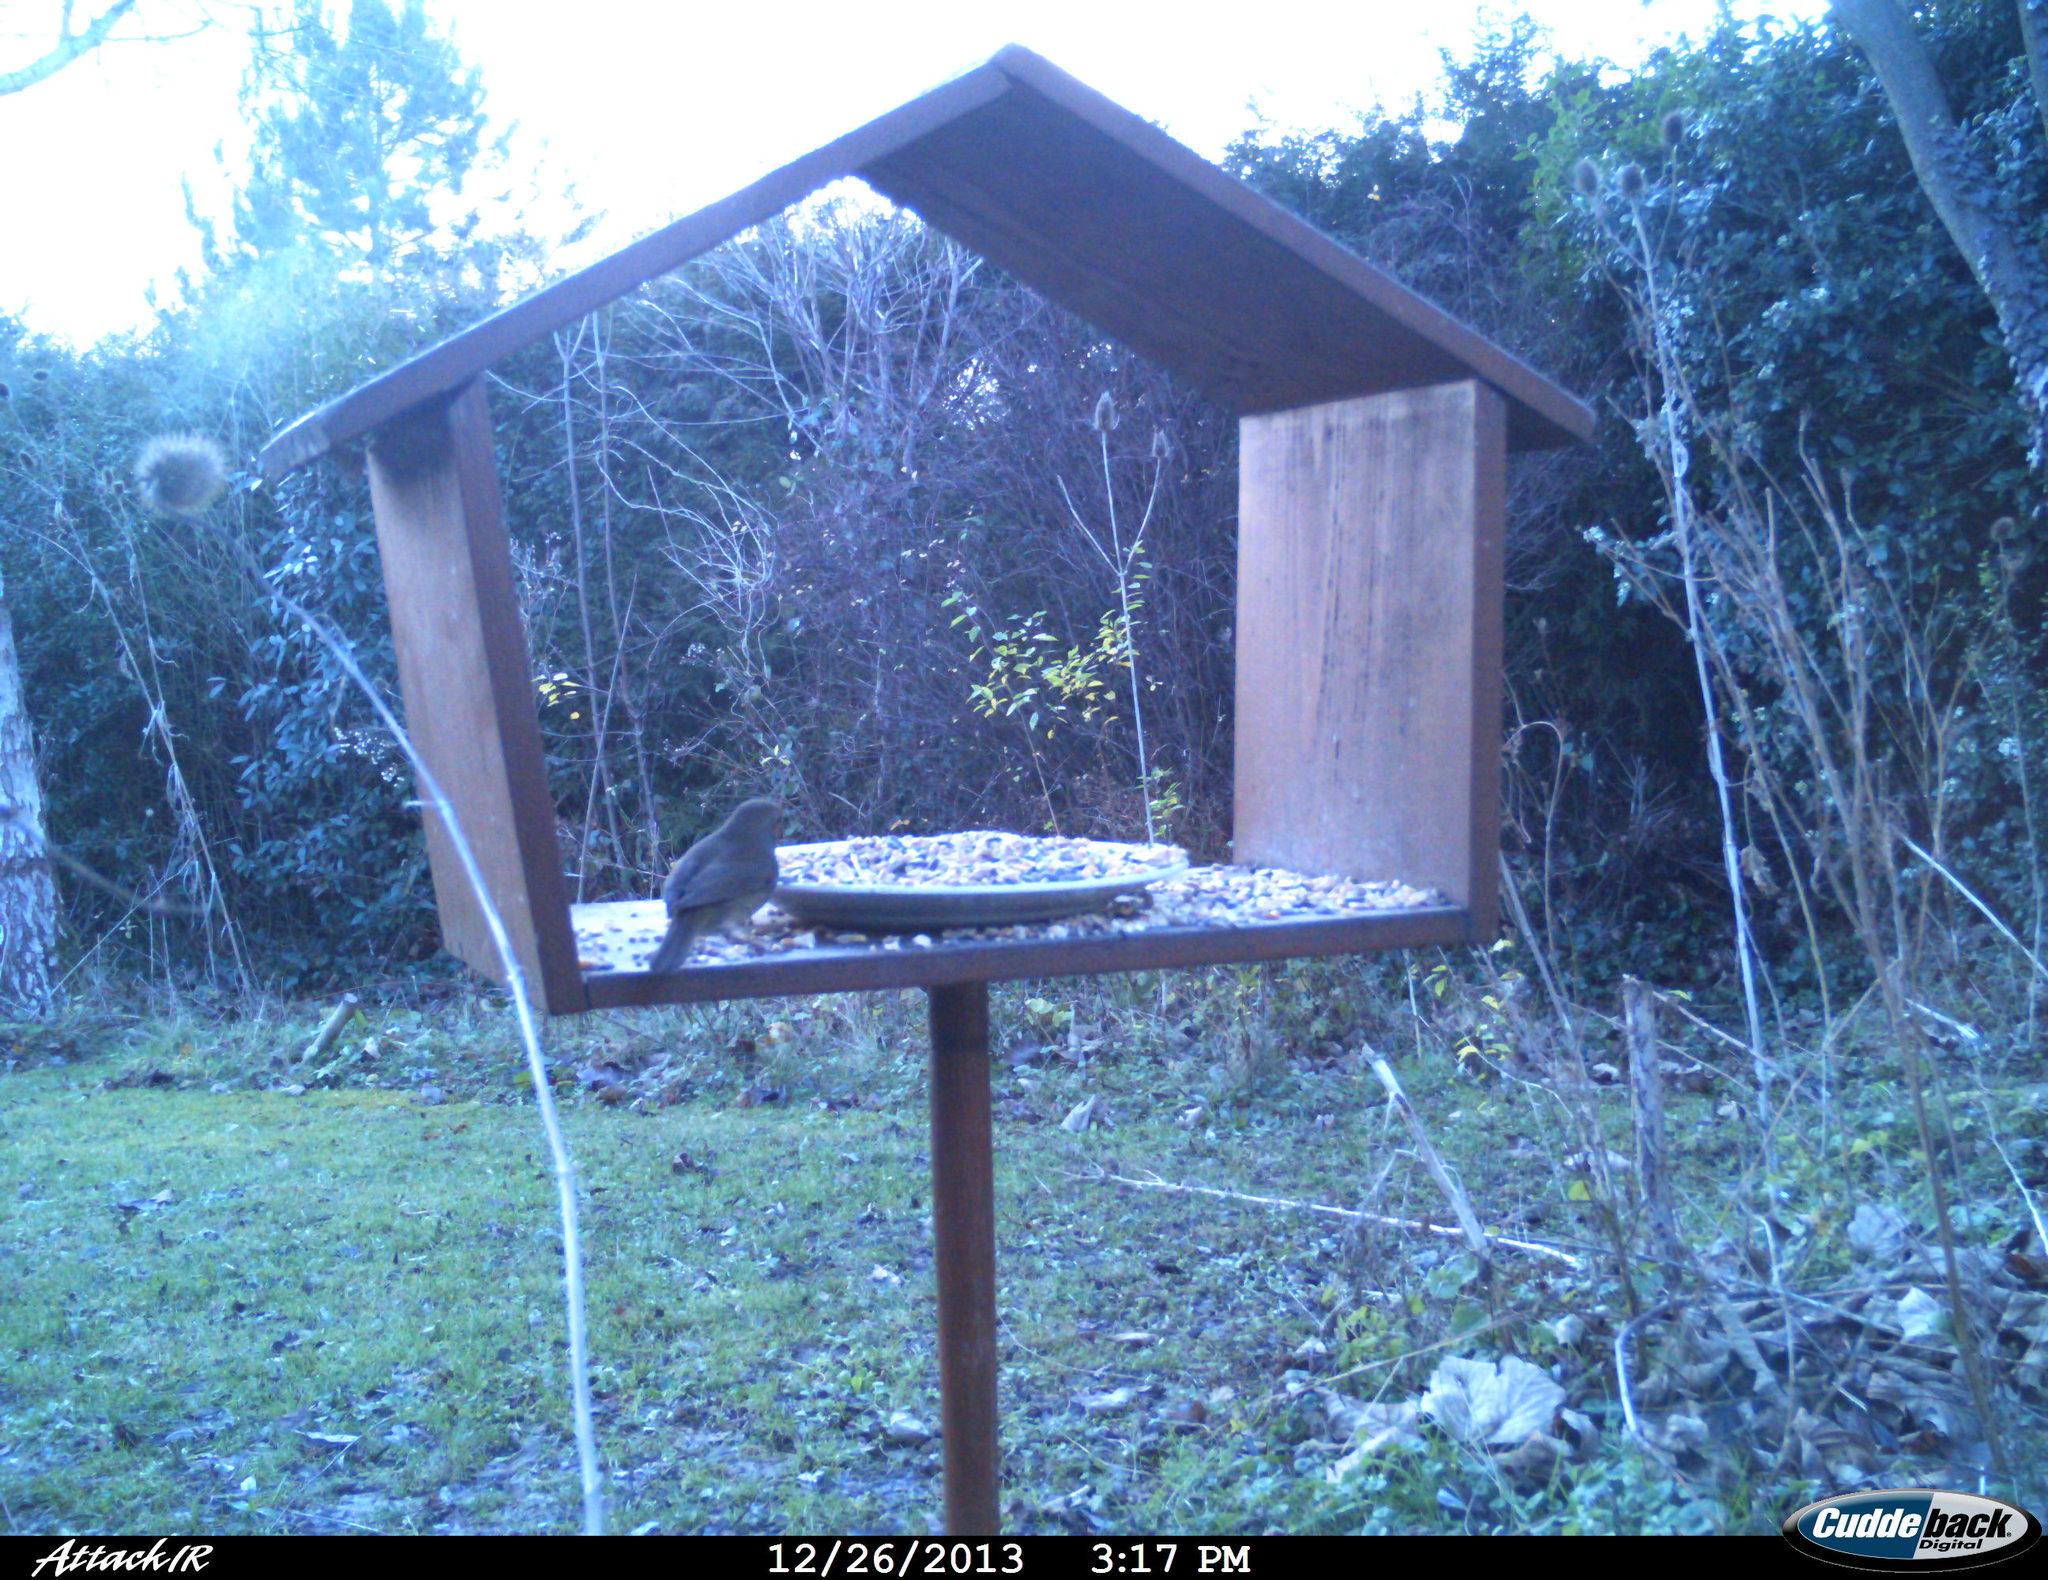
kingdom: Animalia
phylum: Chordata
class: Aves
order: Passeriformes
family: Muscicapidae
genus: Erithacus
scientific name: Erithacus rubecula
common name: European robin
